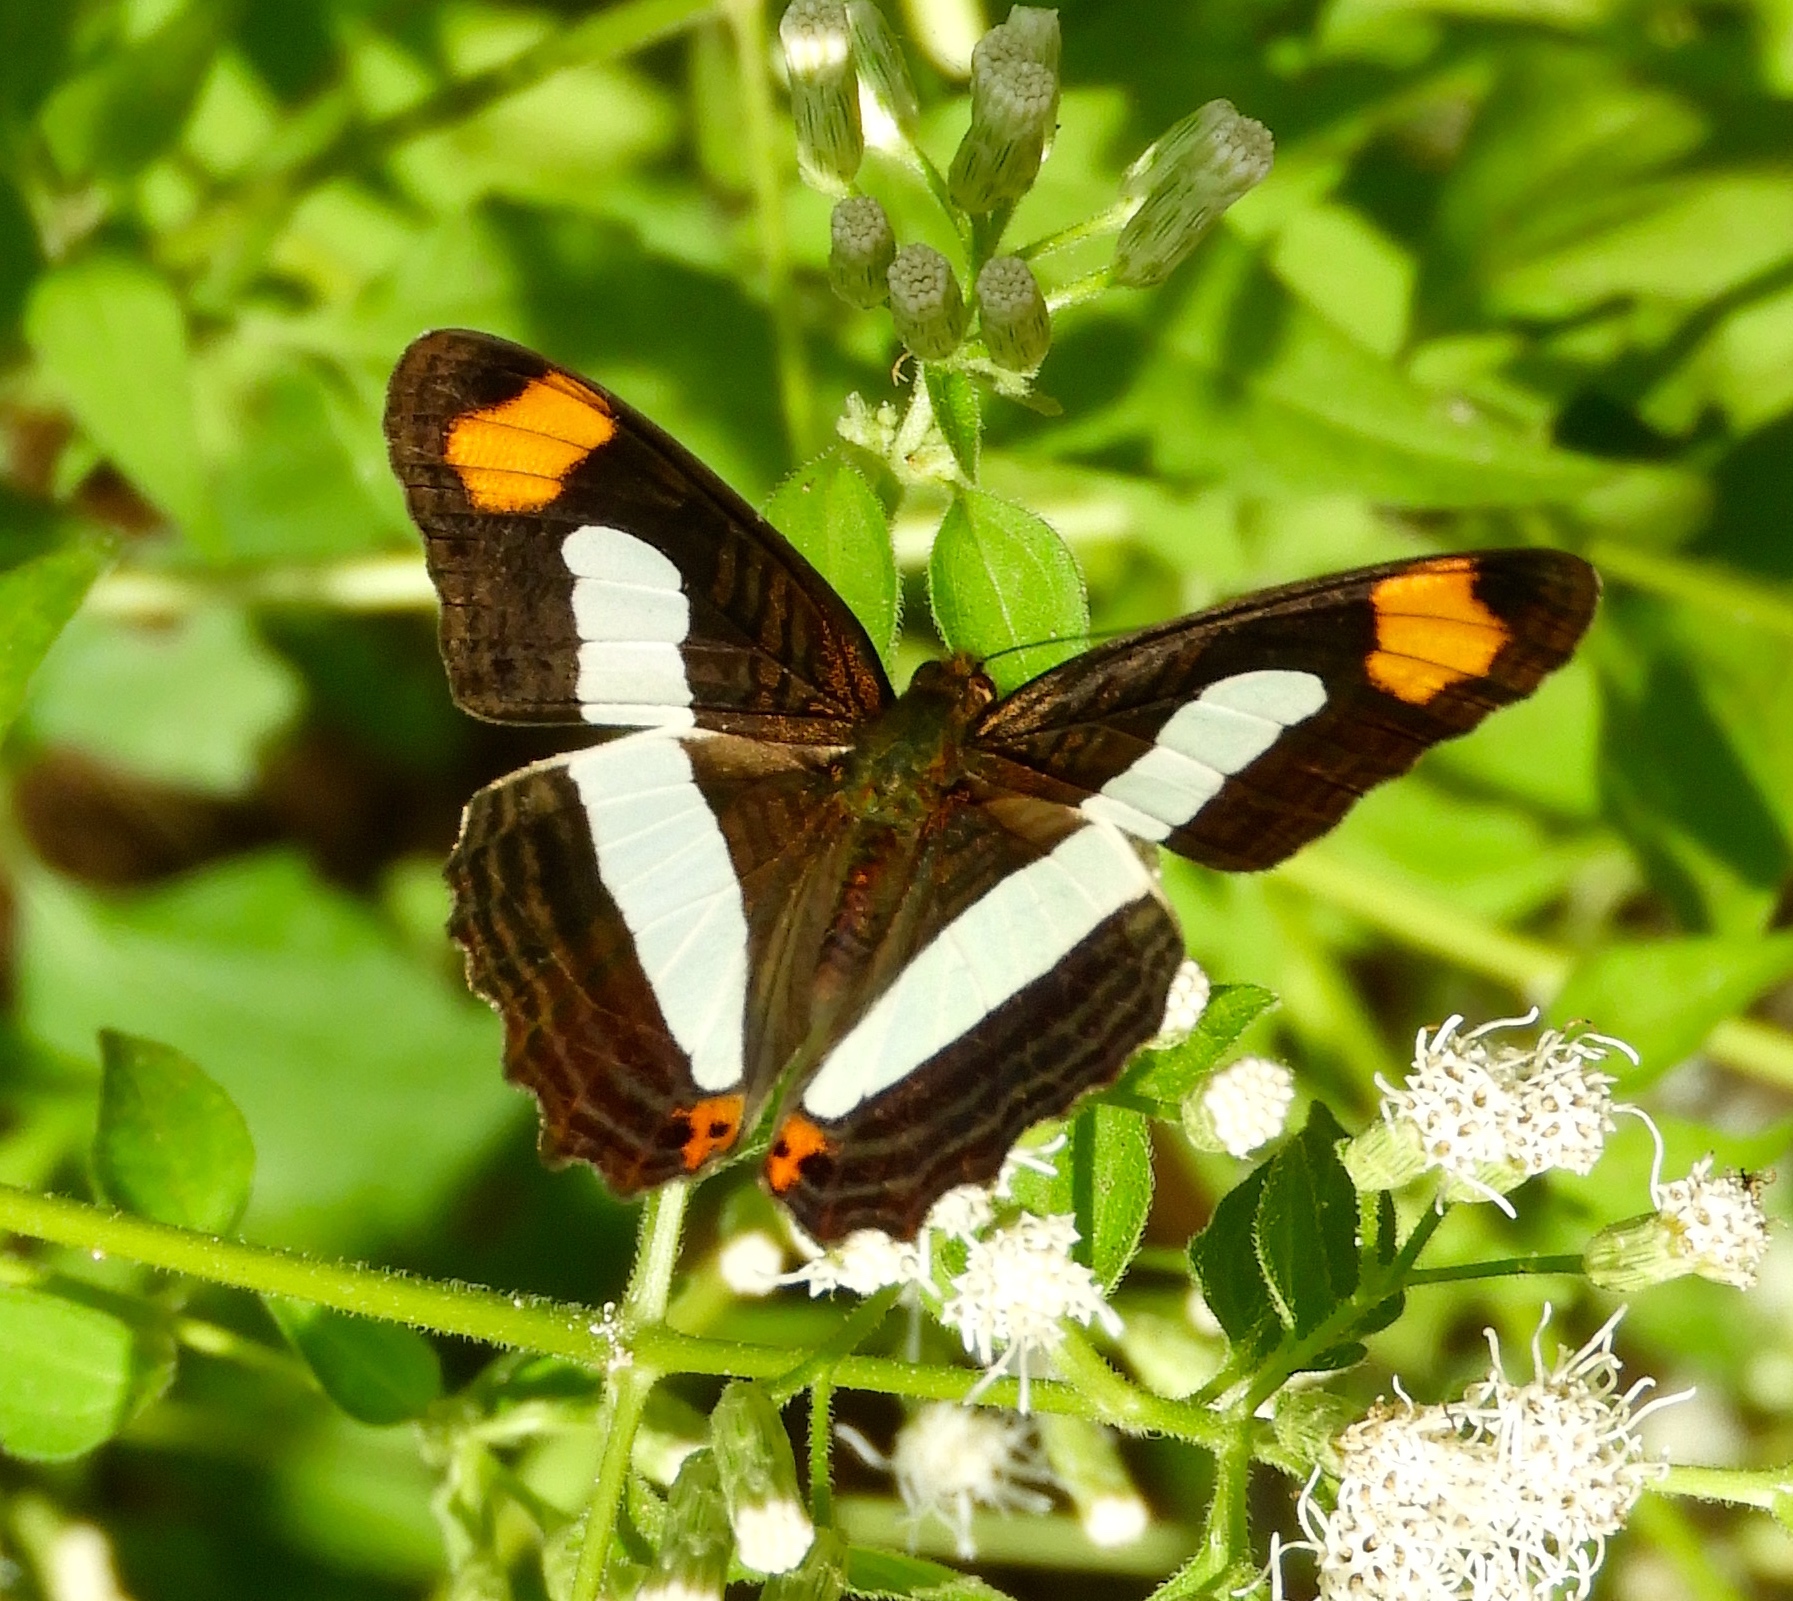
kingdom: Animalia
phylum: Arthropoda
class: Insecta
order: Lepidoptera
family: Nymphalidae
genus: Limenitis
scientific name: Limenitis iphiclus
